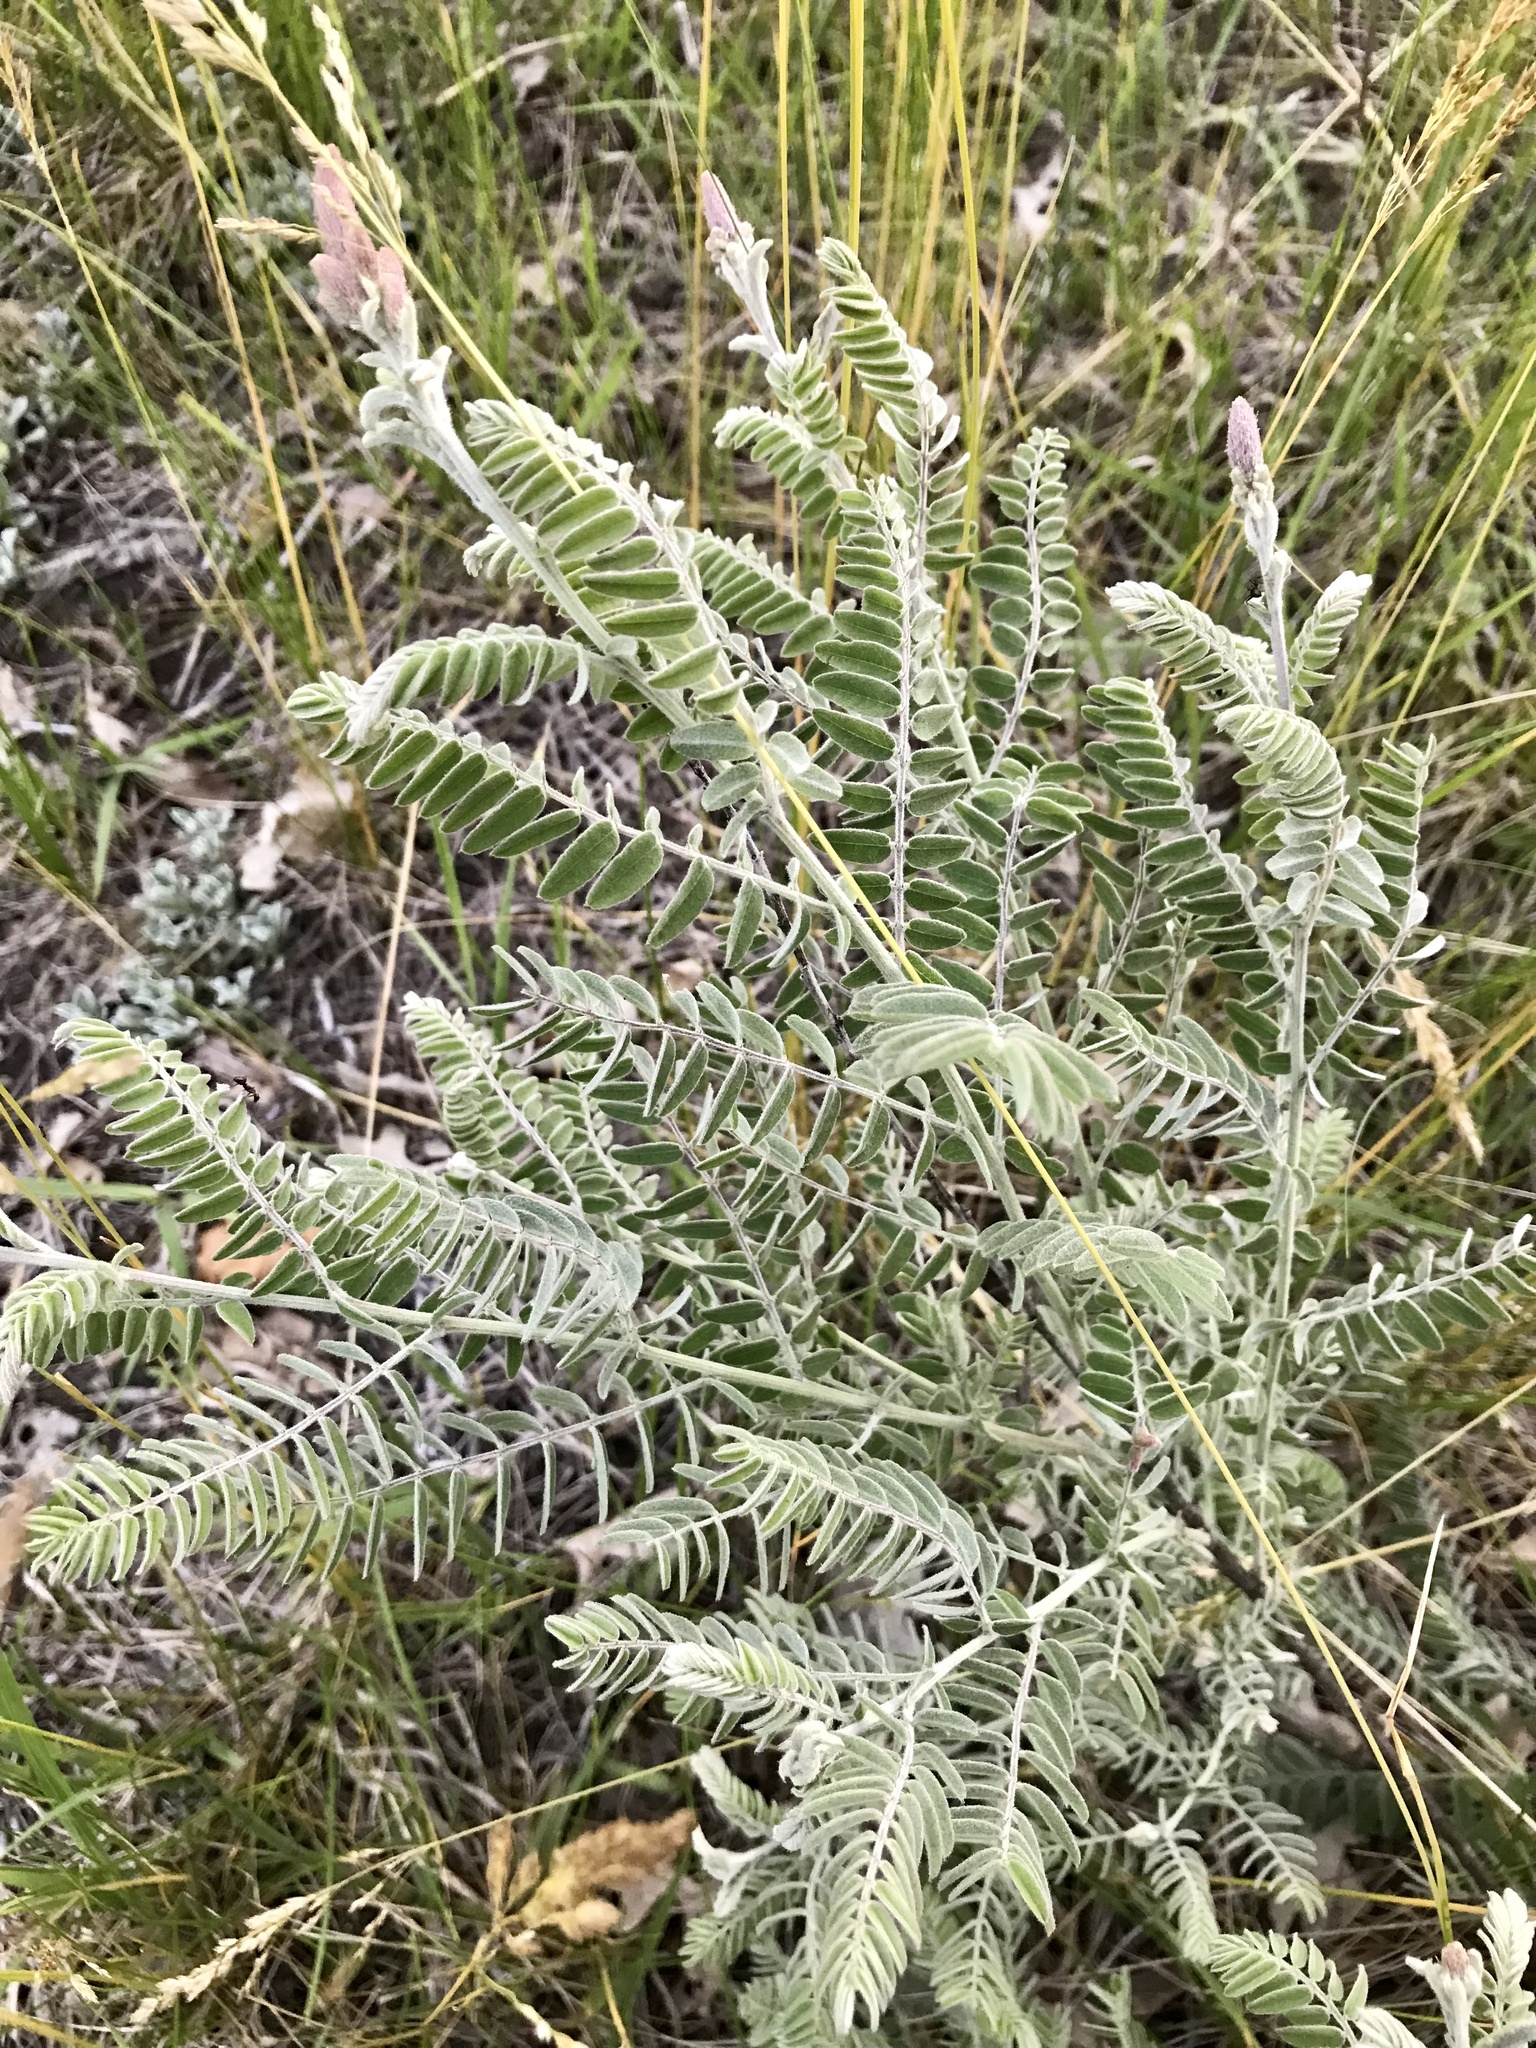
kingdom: Plantae
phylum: Tracheophyta
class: Magnoliopsida
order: Fabales
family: Fabaceae
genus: Amorpha
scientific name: Amorpha canescens
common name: Leadplant
